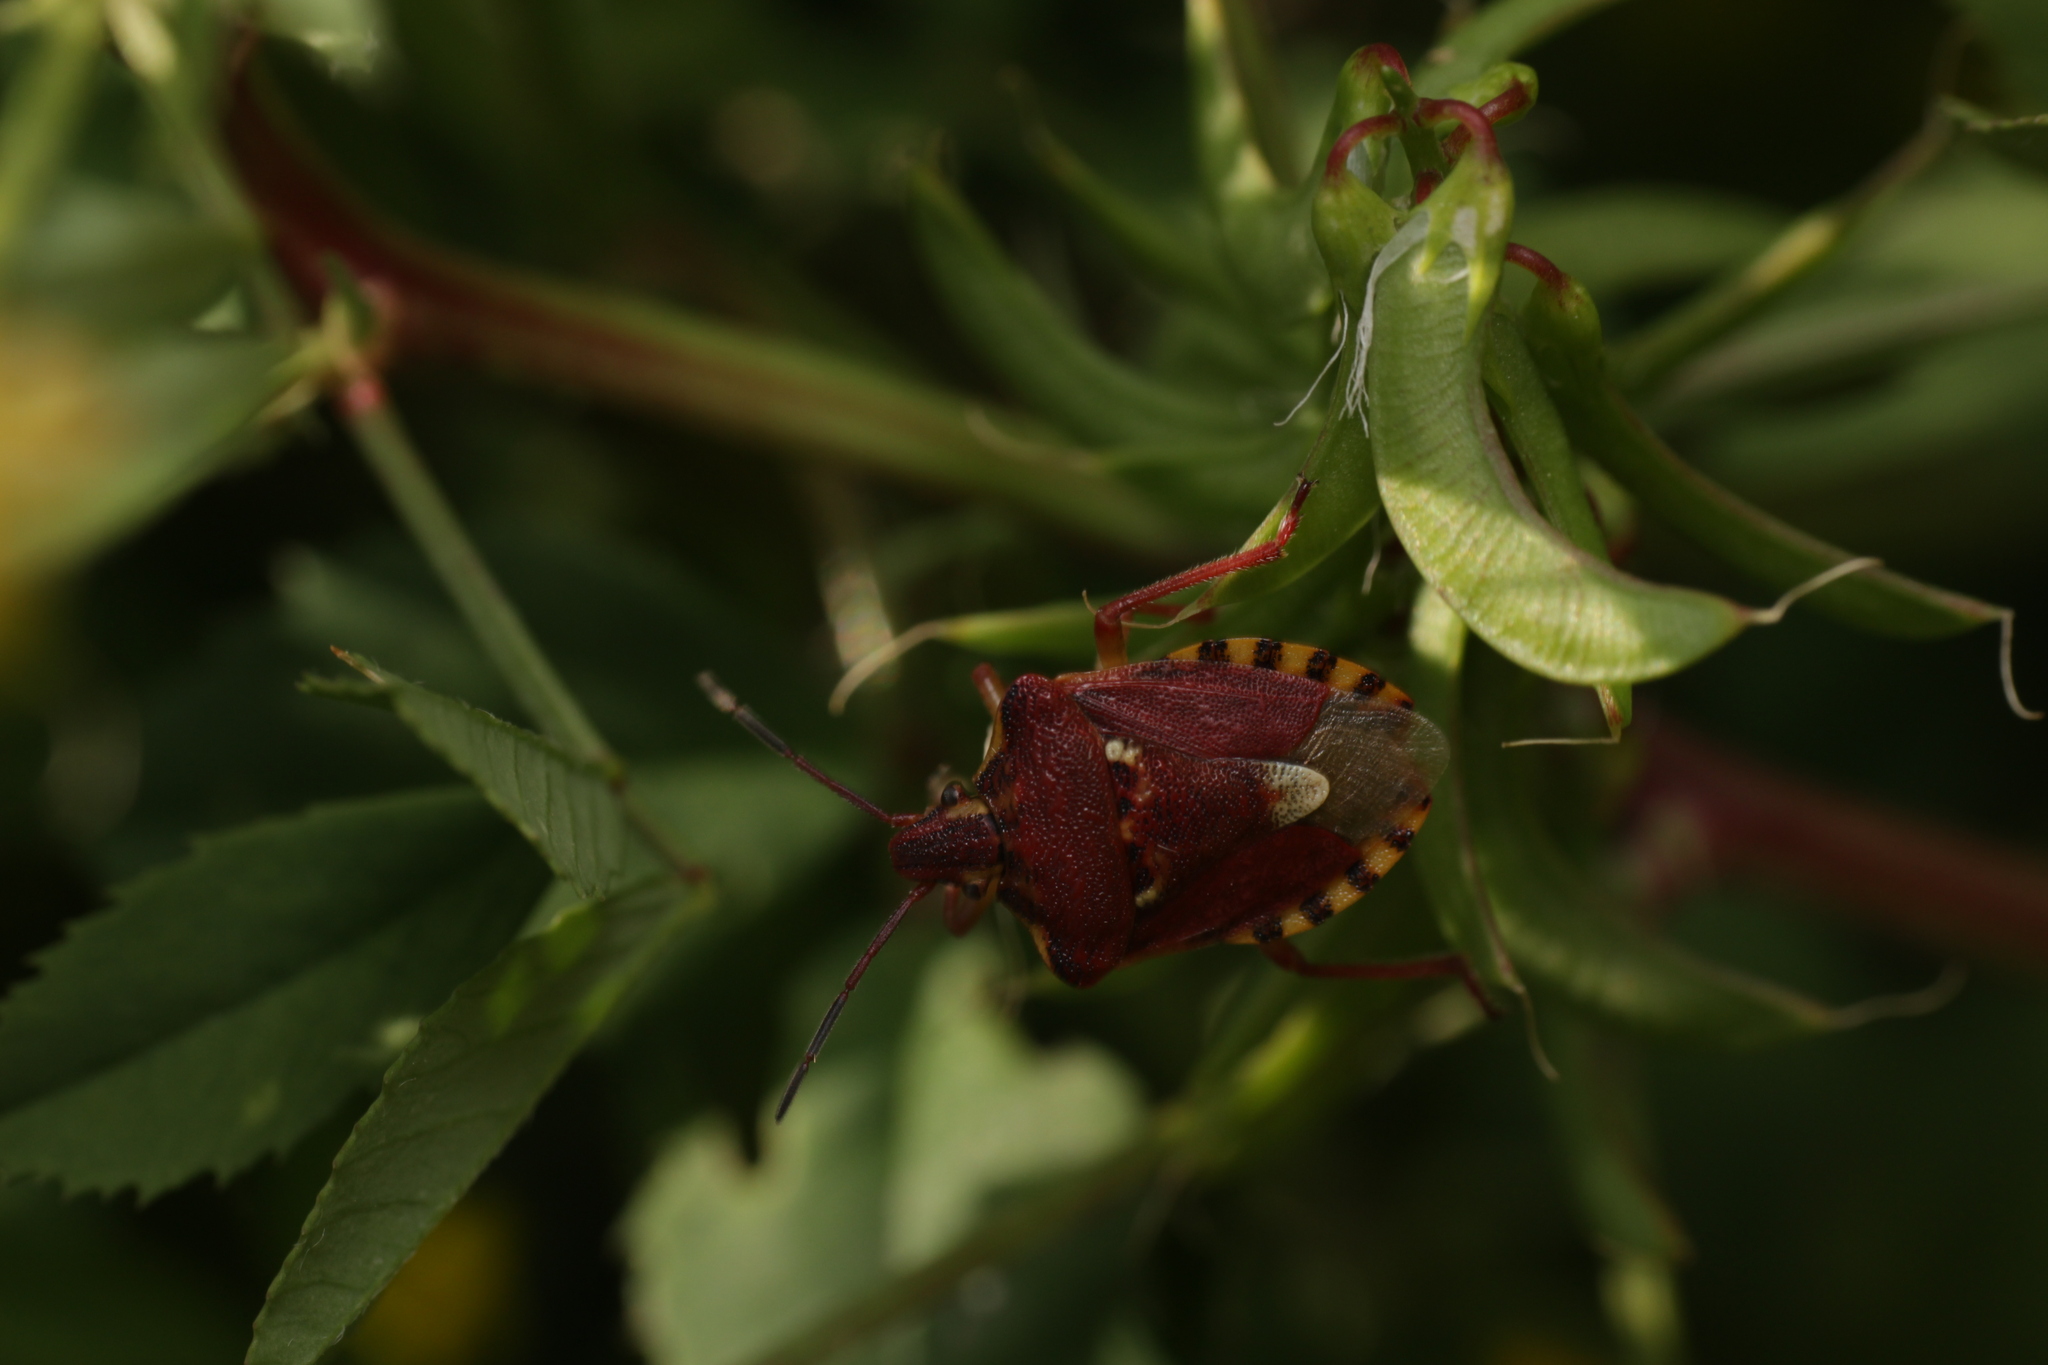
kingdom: Animalia
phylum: Arthropoda
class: Insecta
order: Hemiptera
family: Miridae
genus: Orthops
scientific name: Orthops kalmii
